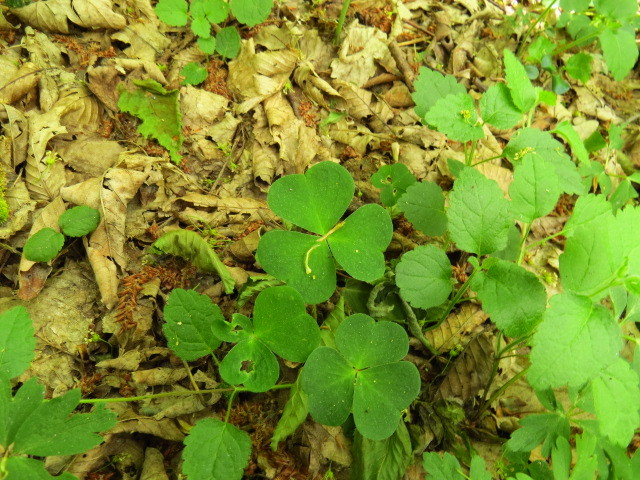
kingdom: Plantae
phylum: Tracheophyta
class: Magnoliopsida
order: Oxalidales
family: Oxalidaceae
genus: Oxalis
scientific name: Oxalis acetosella
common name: Wood-sorrel
